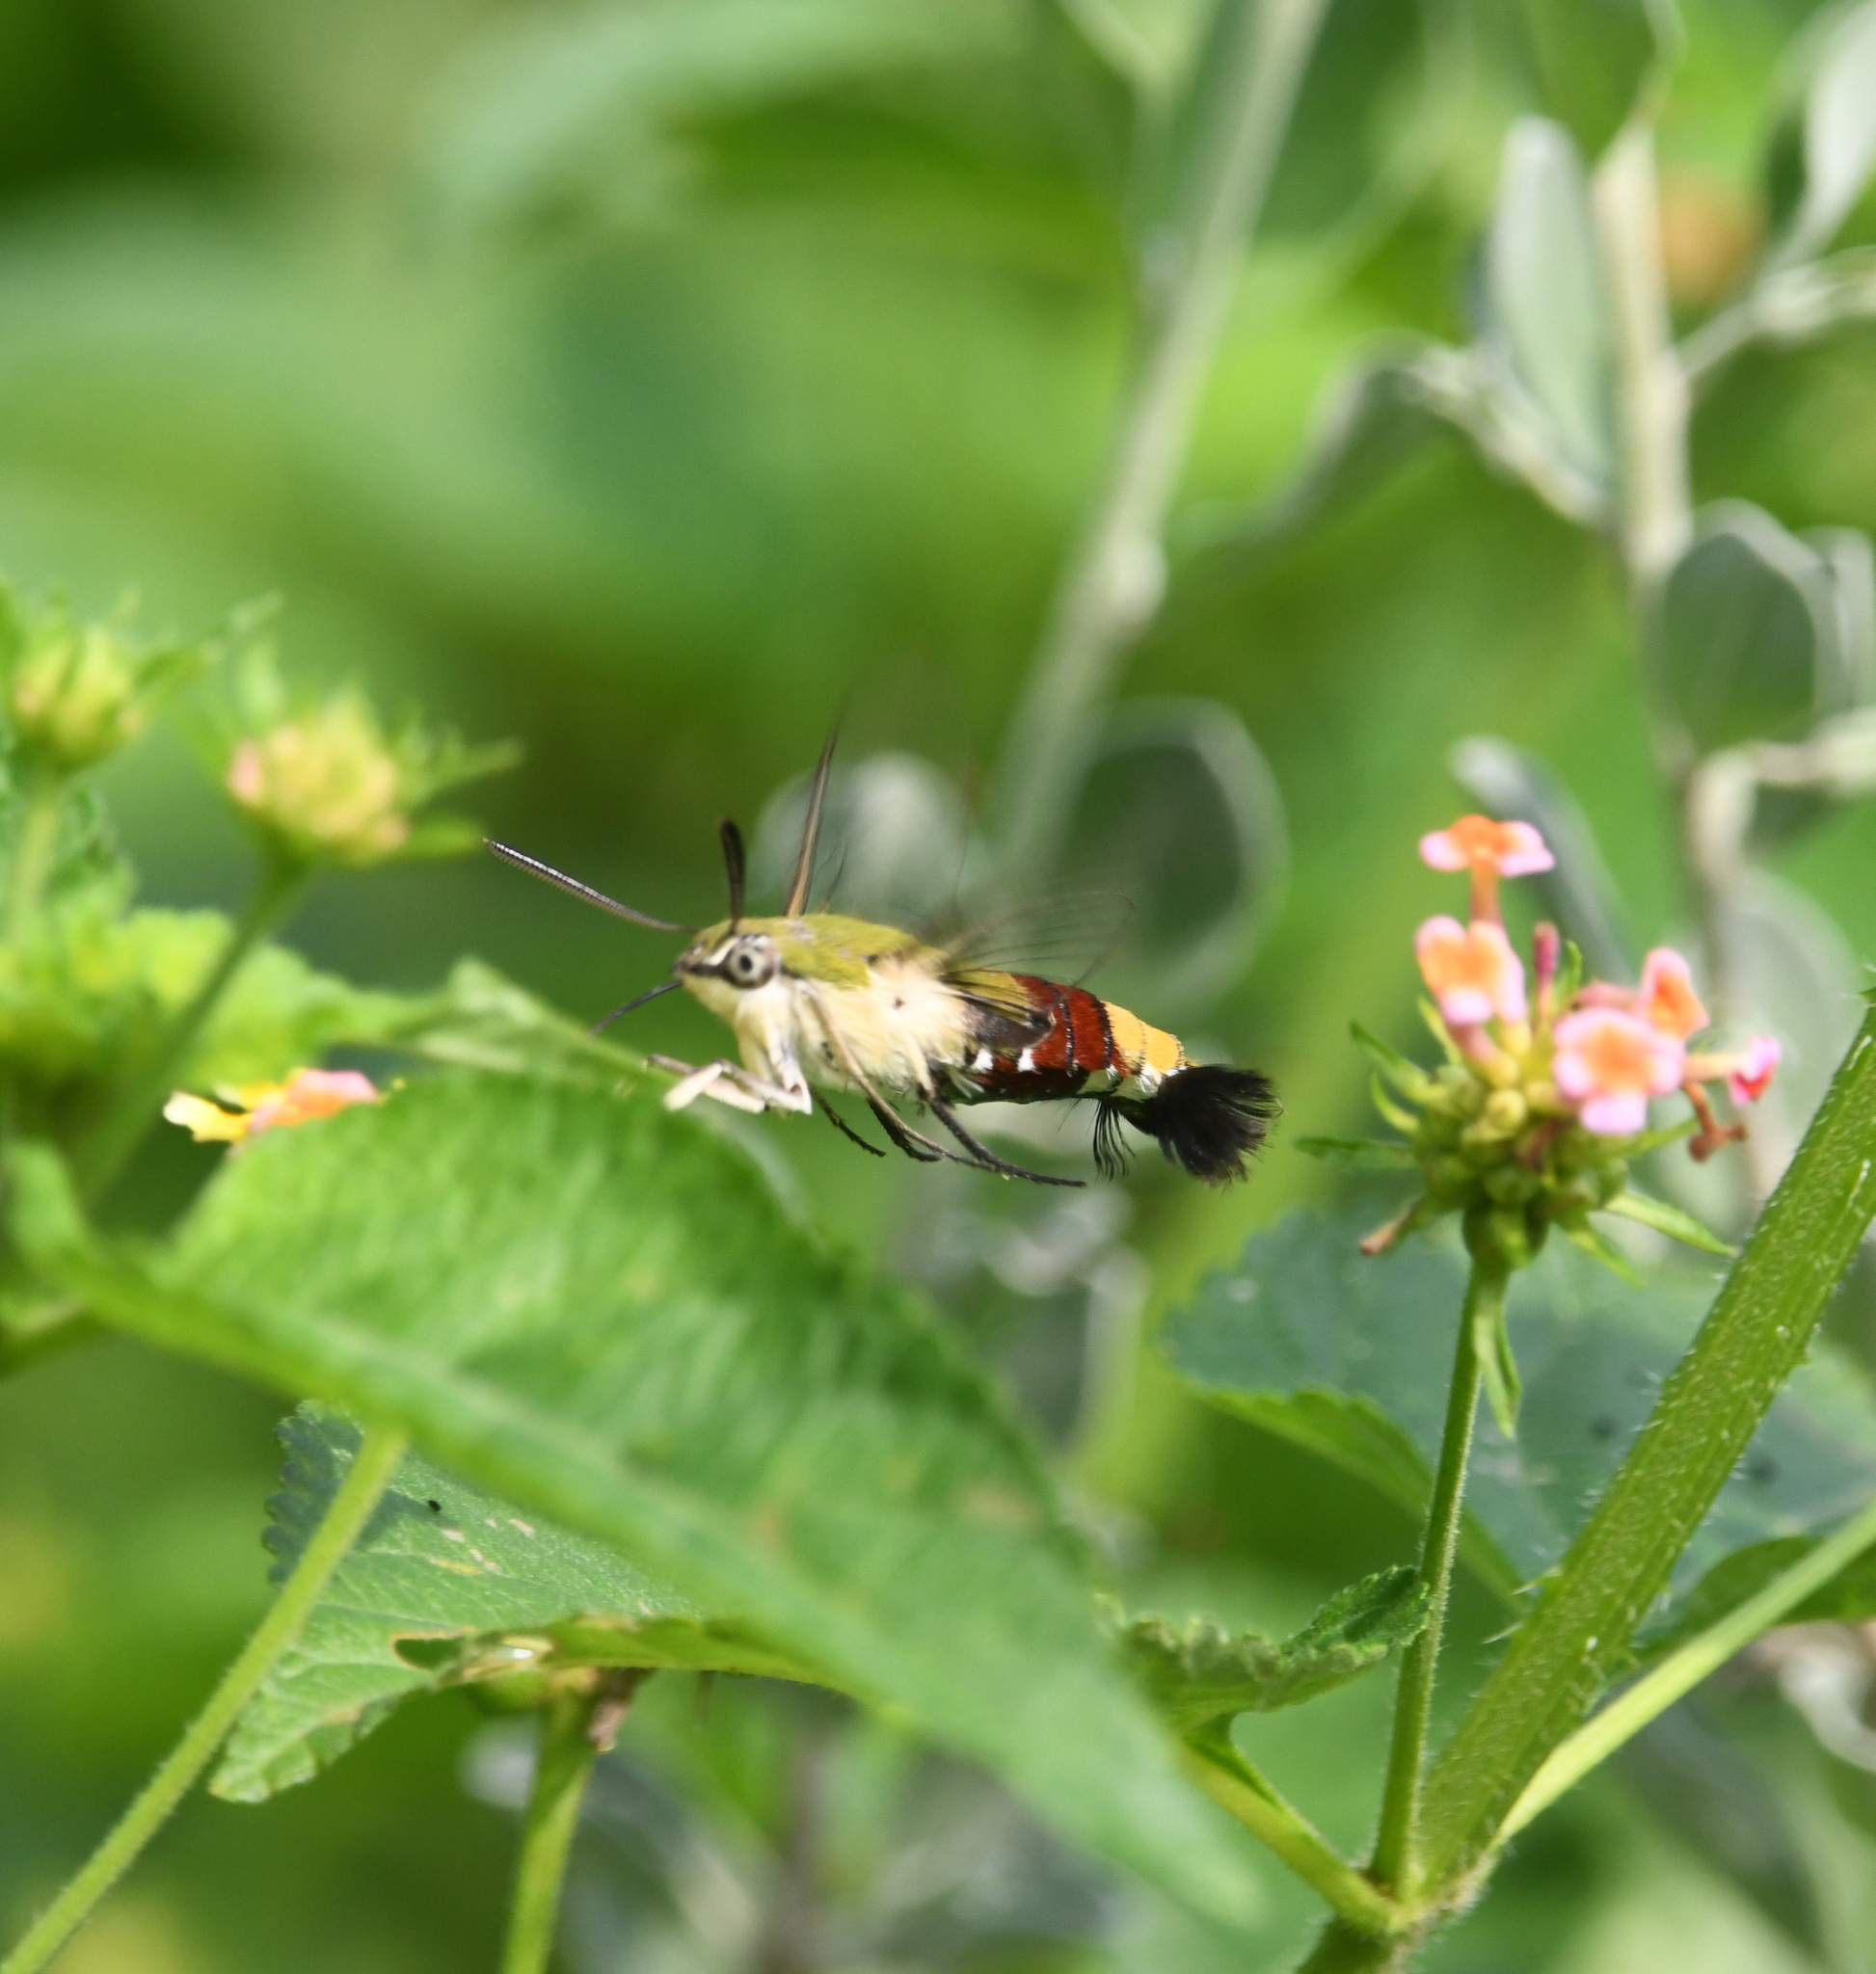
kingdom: Animalia
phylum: Arthropoda
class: Insecta
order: Lepidoptera
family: Sphingidae
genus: Cephonodes
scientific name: Cephonodes hylas
